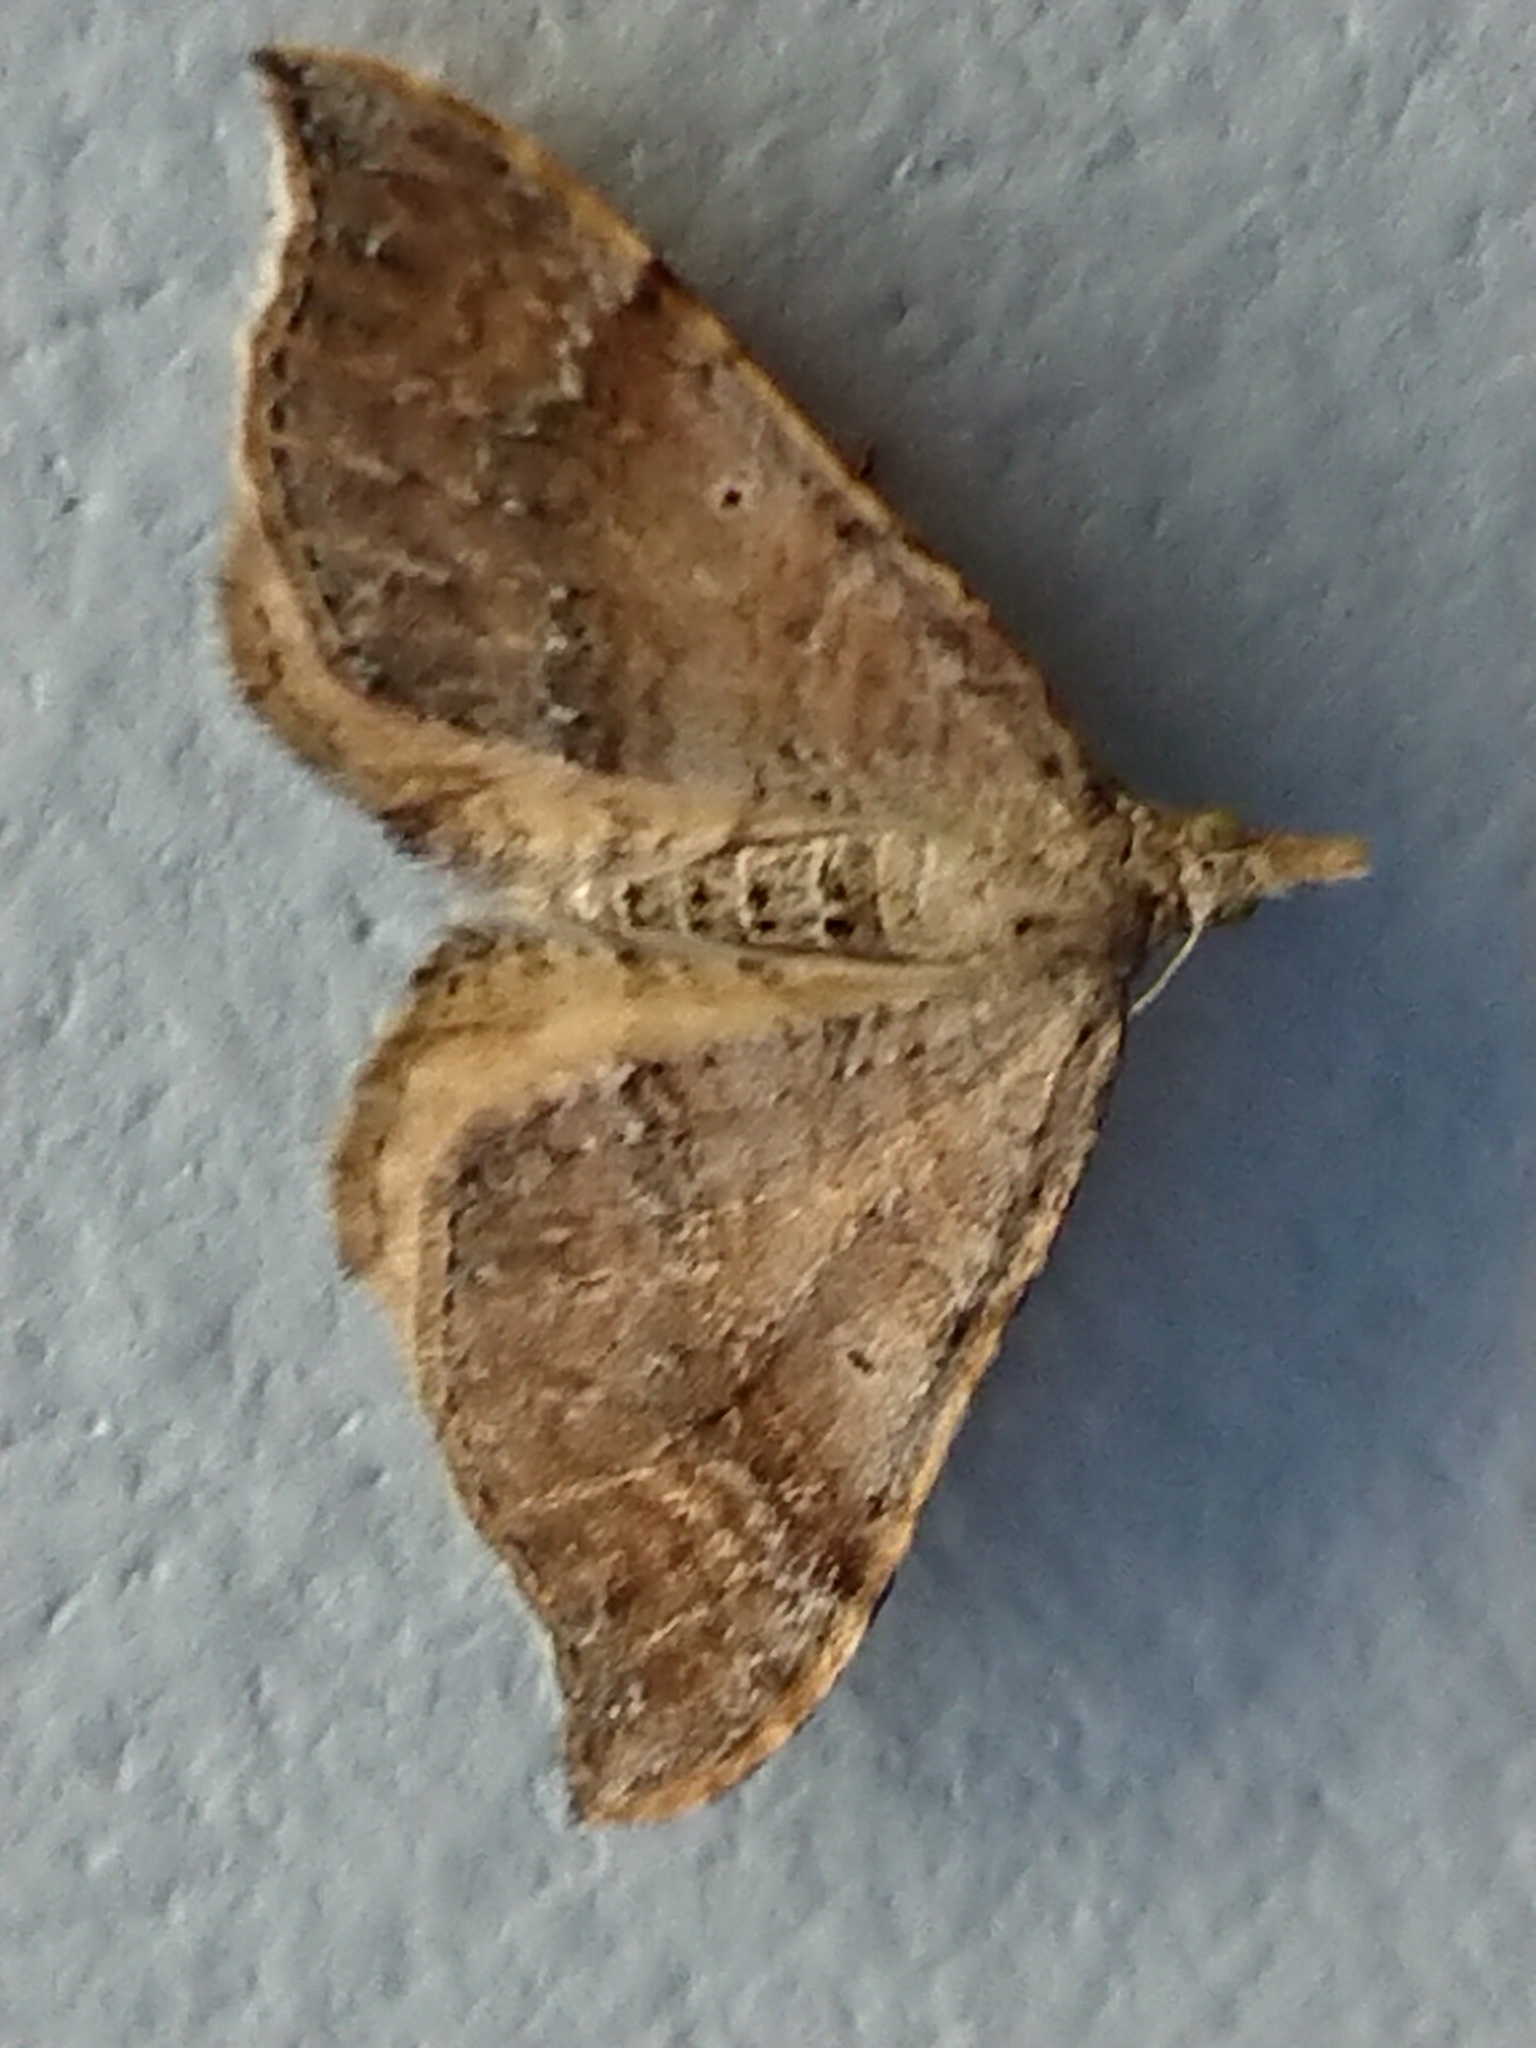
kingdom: Animalia
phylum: Arthropoda
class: Insecta
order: Lepidoptera
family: Geometridae
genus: Homodotis
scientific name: Homodotis megaspilata
